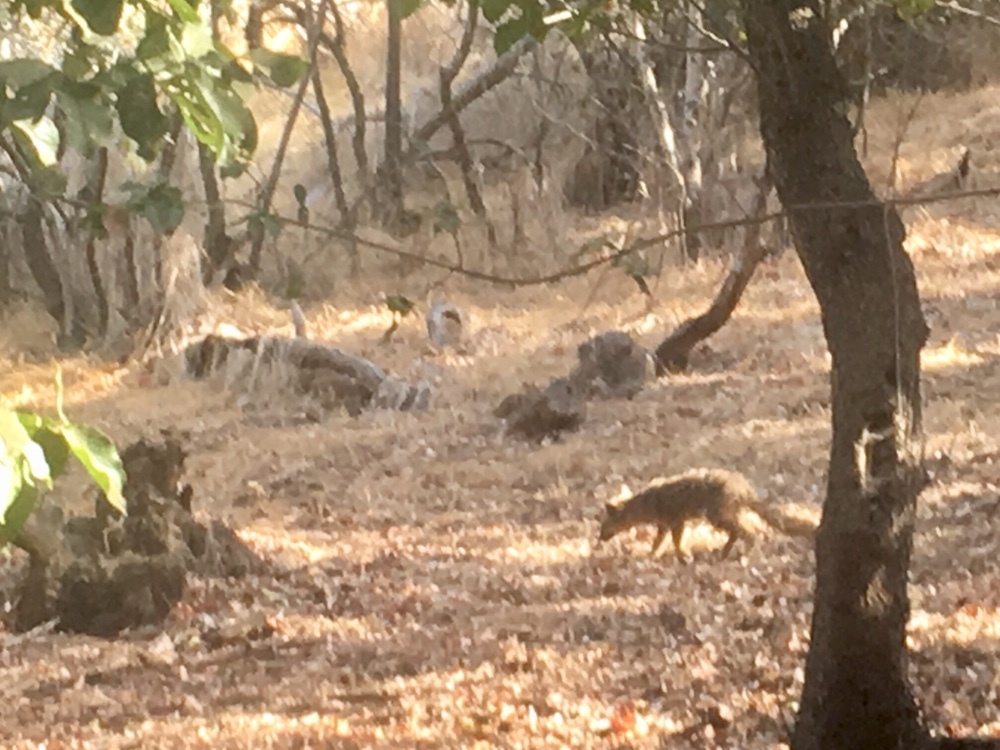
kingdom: Animalia
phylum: Chordata
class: Mammalia
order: Carnivora
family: Canidae
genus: Urocyon
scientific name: Urocyon littoralis
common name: Island gray fox
